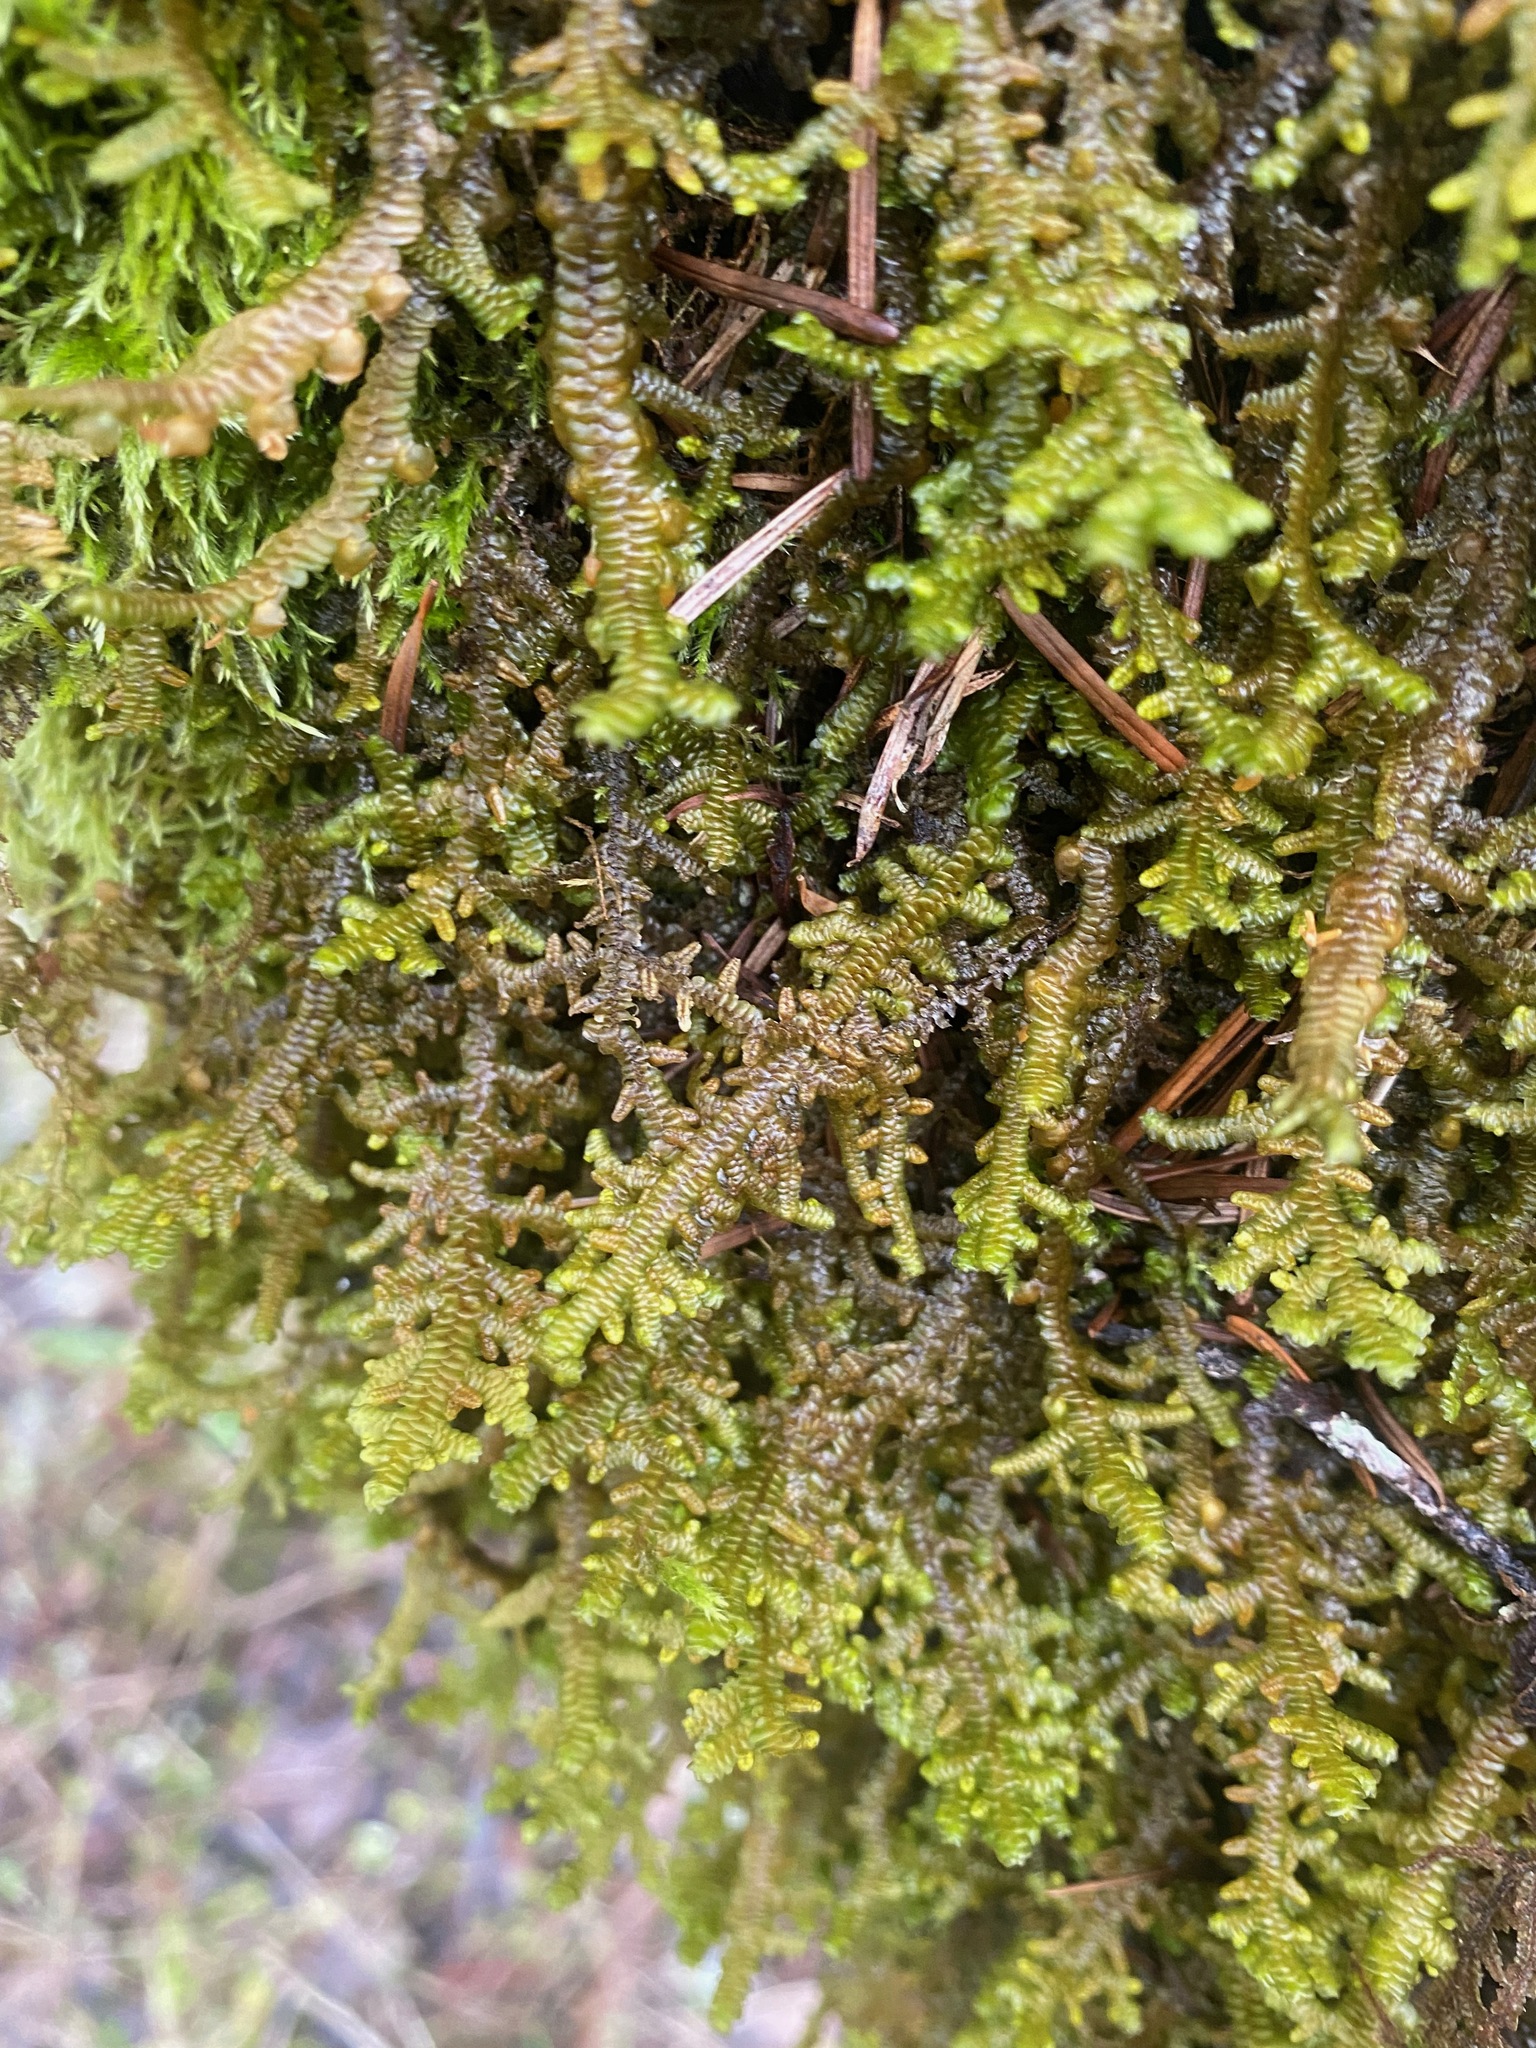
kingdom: Plantae
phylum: Marchantiophyta
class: Jungermanniopsida
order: Porellales
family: Porellaceae
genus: Porella
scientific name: Porella navicularis
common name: Tree ruffle liverwort
